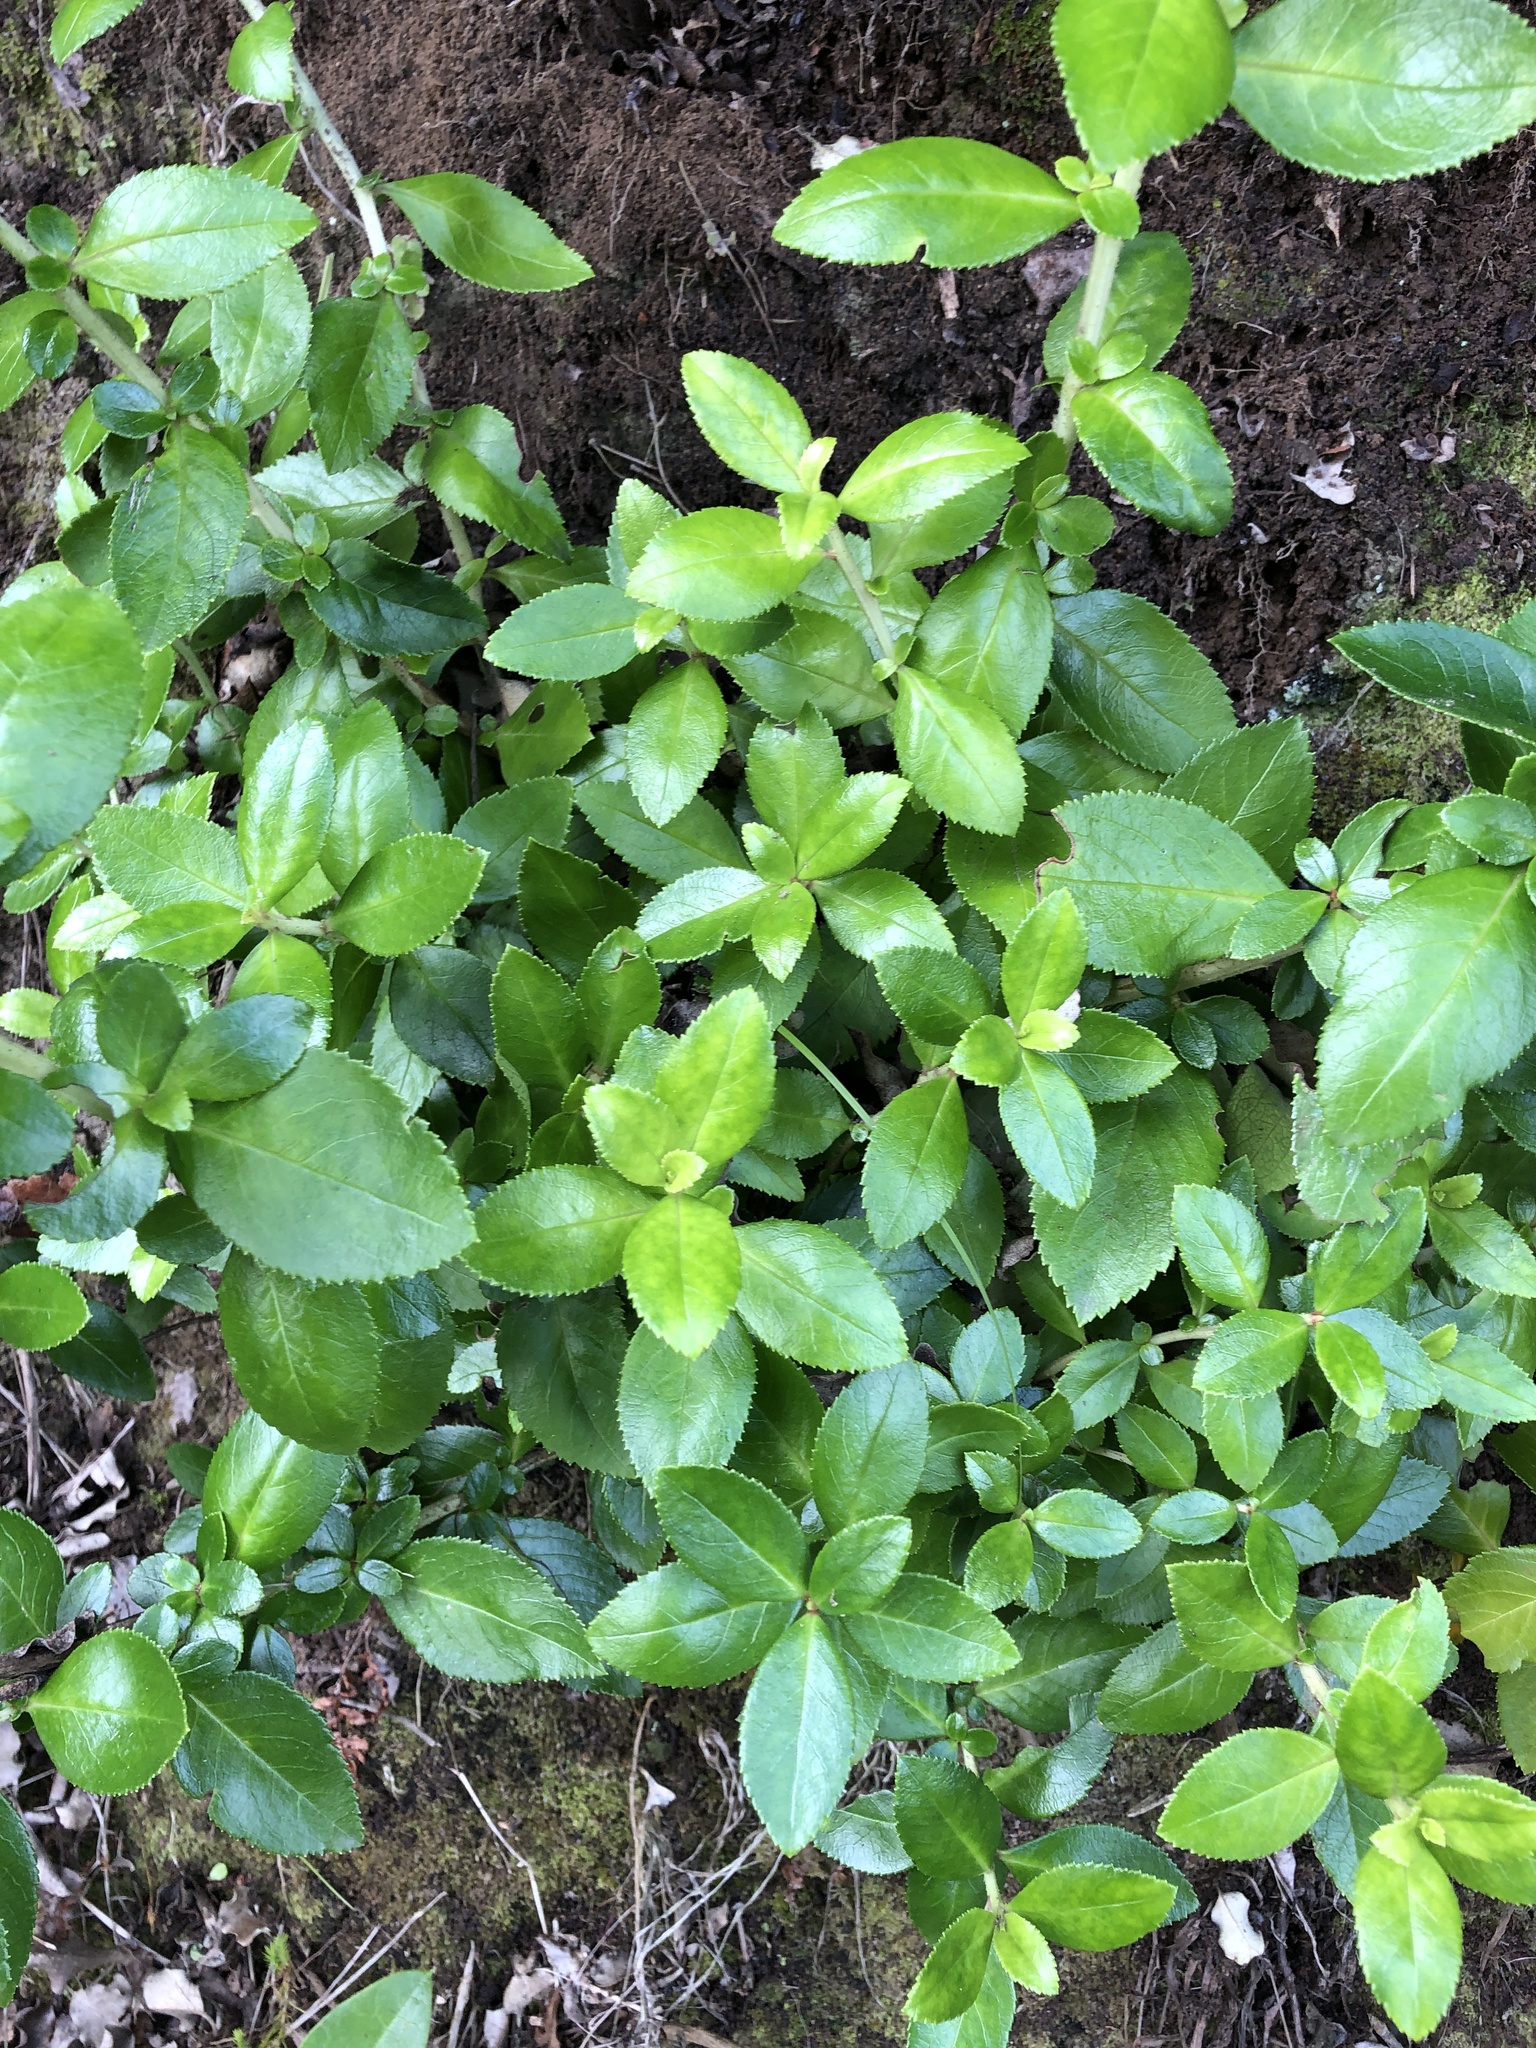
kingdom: Plantae
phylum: Tracheophyta
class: Magnoliopsida
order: Escalloniales
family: Escalloniaceae
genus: Escallonia
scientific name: Escallonia rubra
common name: Redclaws
